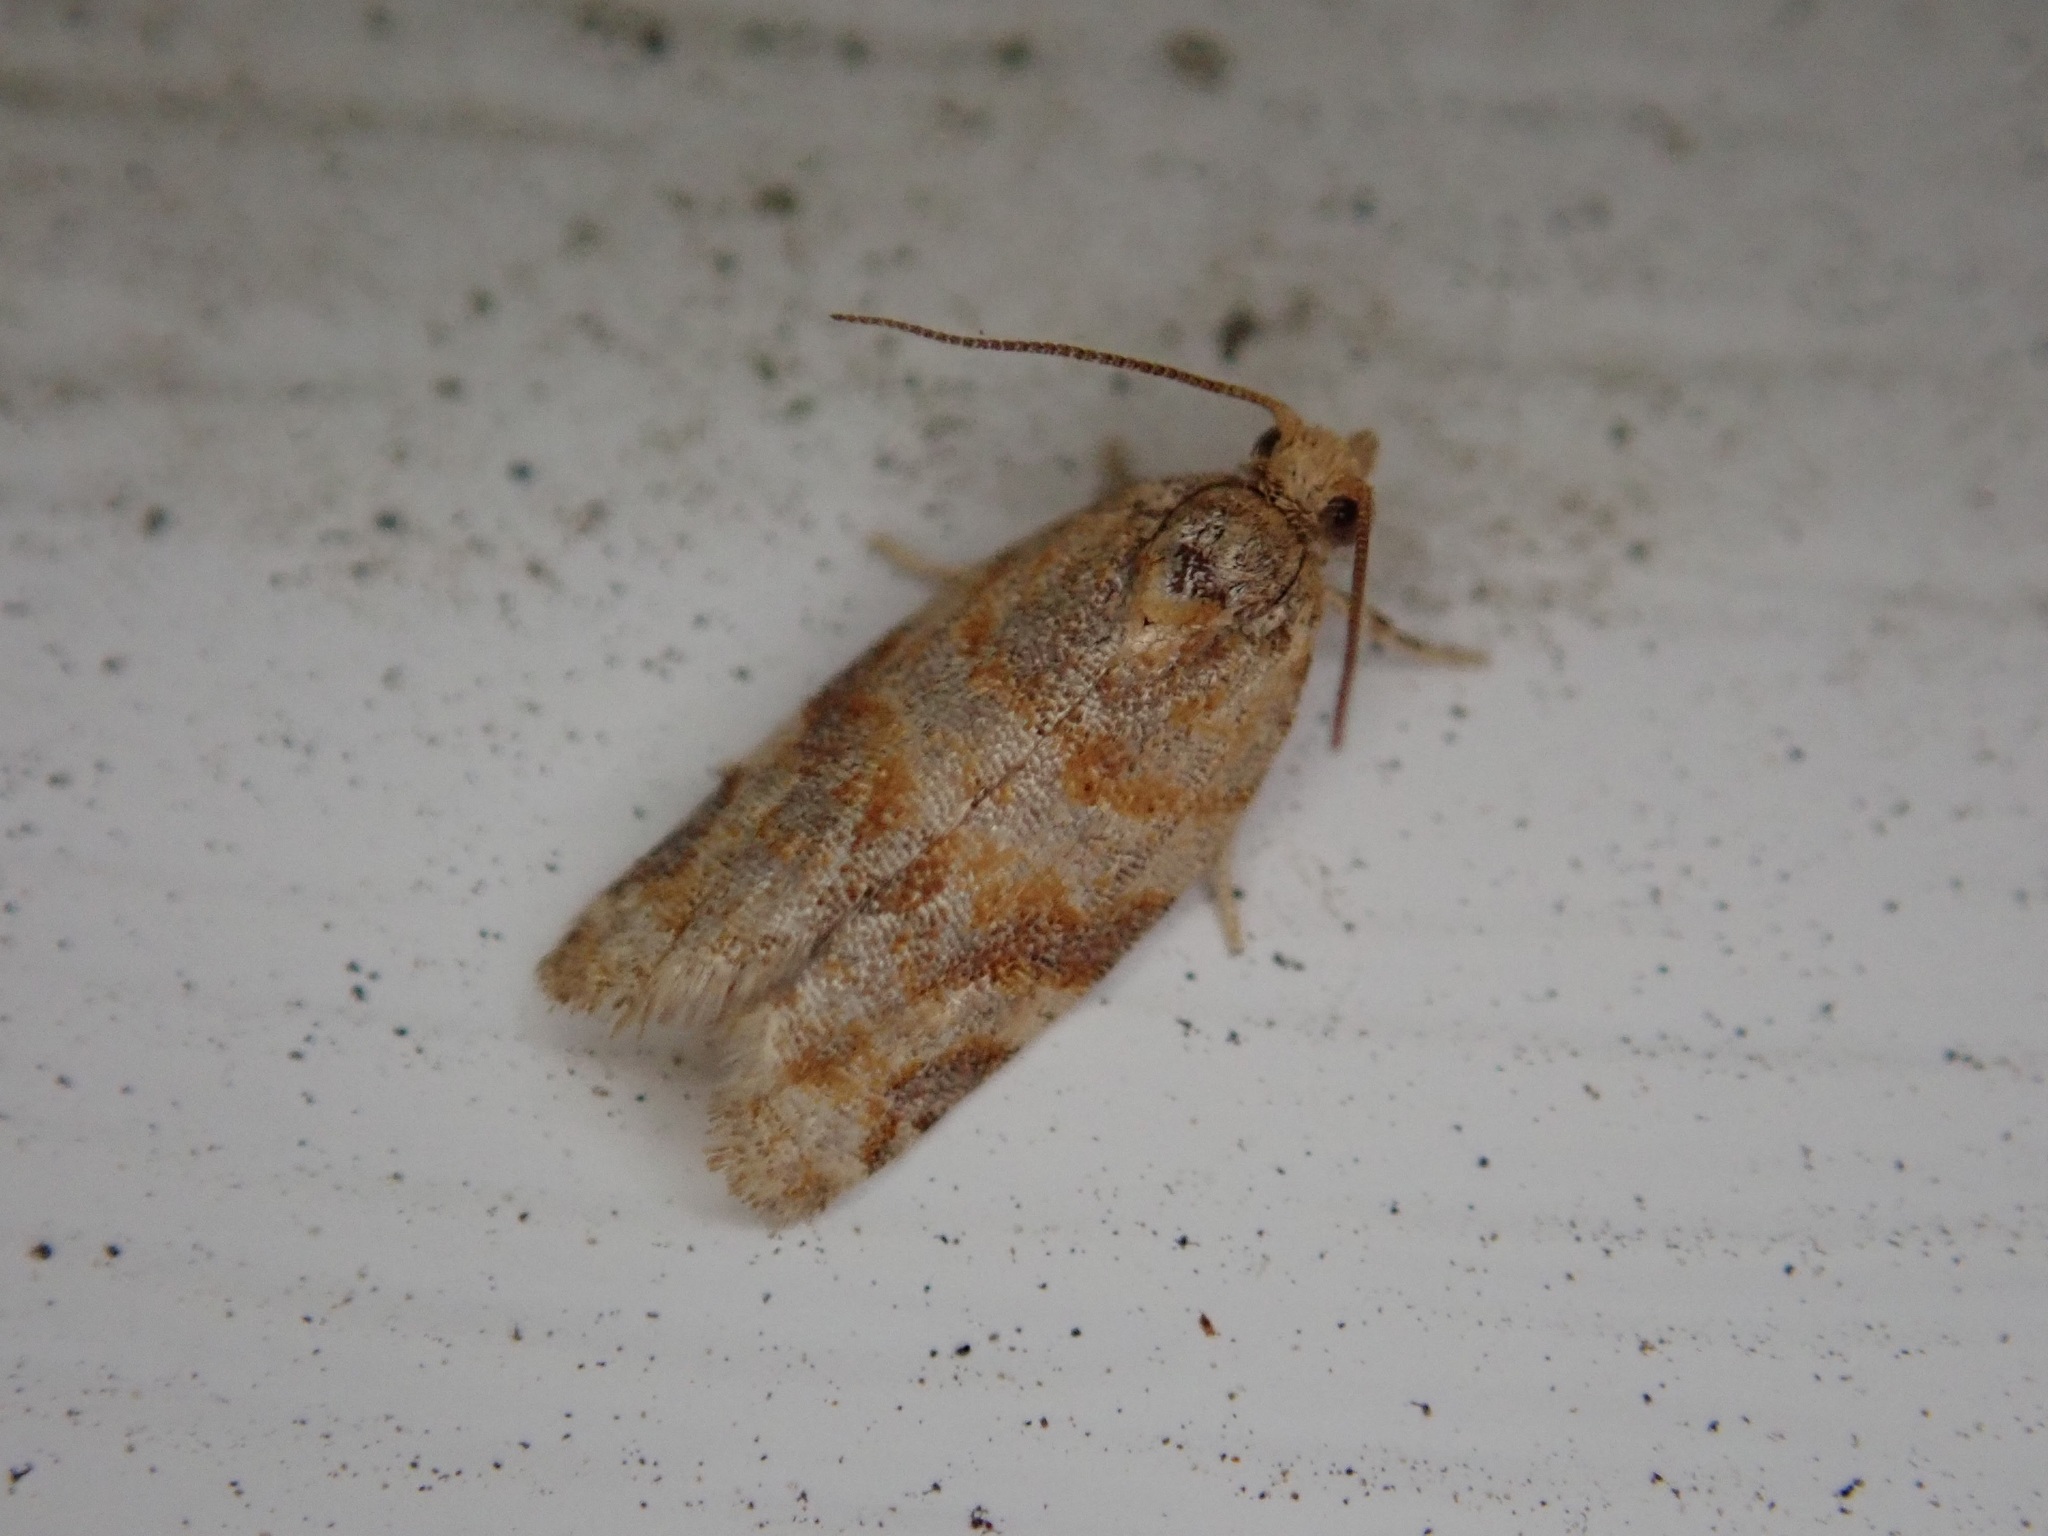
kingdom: Animalia
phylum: Arthropoda
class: Insecta
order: Lepidoptera
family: Tortricidae
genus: Argyrotaenia
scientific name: Argyrotaenia pinatubana
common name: Pine tube moth
